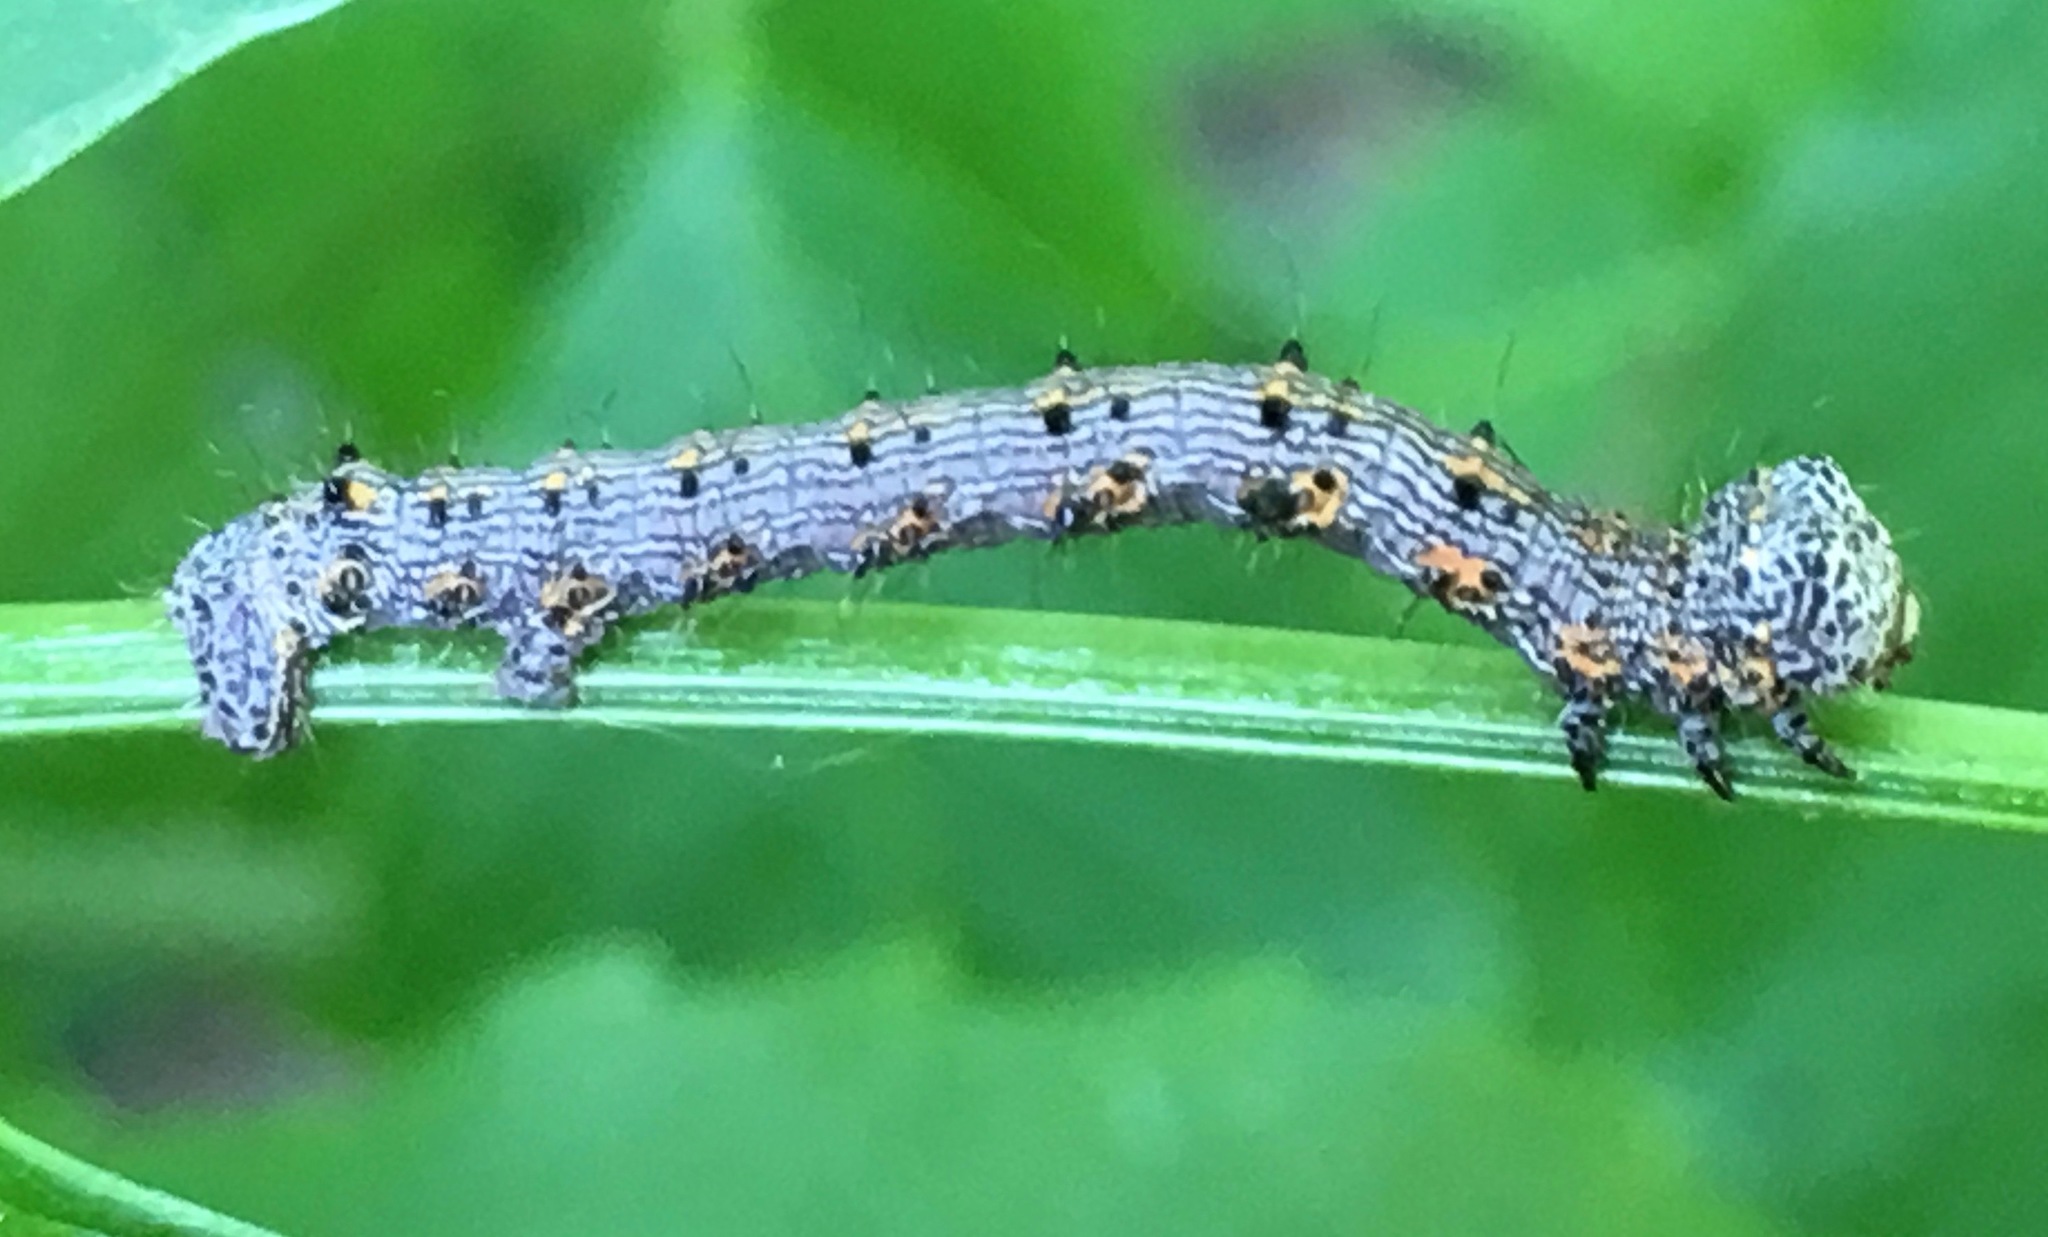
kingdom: Animalia
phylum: Arthropoda
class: Insecta
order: Lepidoptera
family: Geometridae
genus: Phigalia
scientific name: Phigalia titea
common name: Spiny looper
